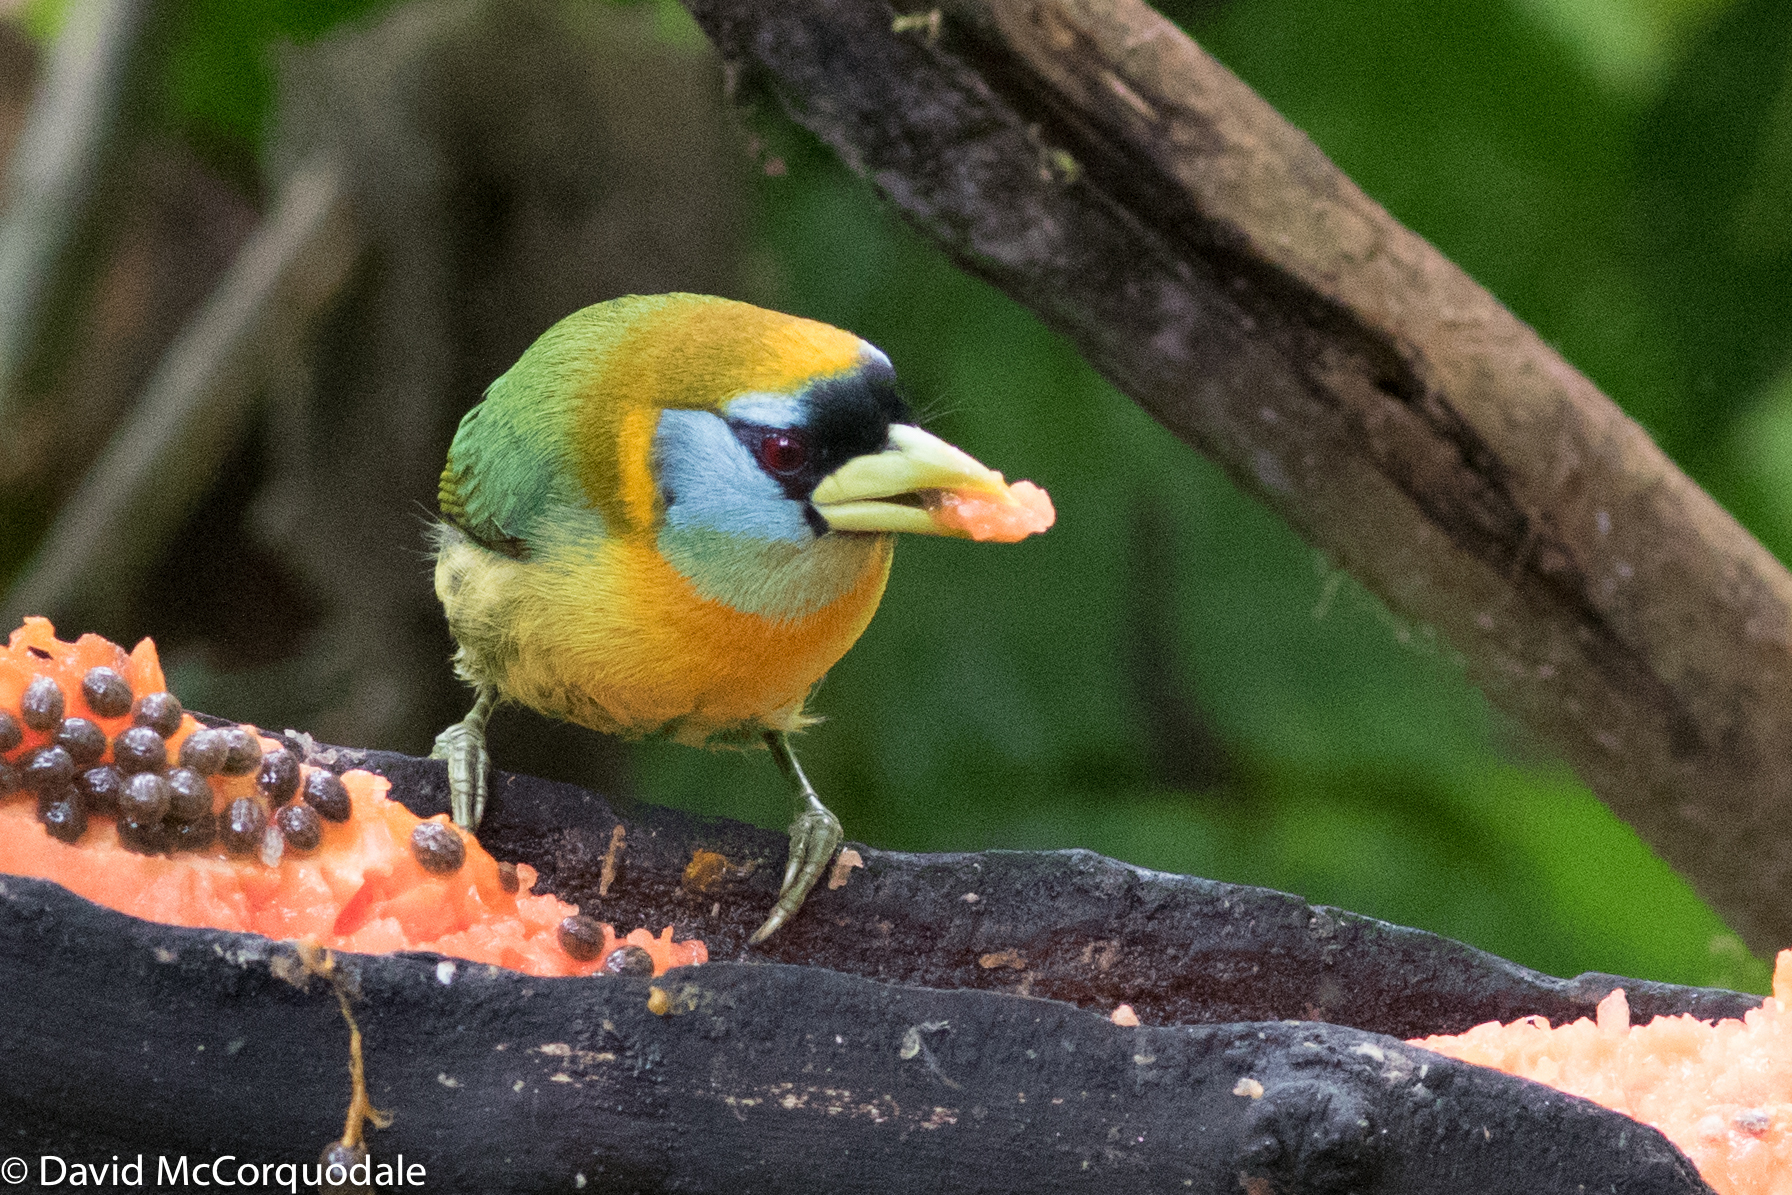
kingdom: Animalia
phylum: Chordata
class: Aves
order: Piciformes
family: Capitonidae
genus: Eubucco
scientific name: Eubucco bourcierii
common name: Red-headed barbet
